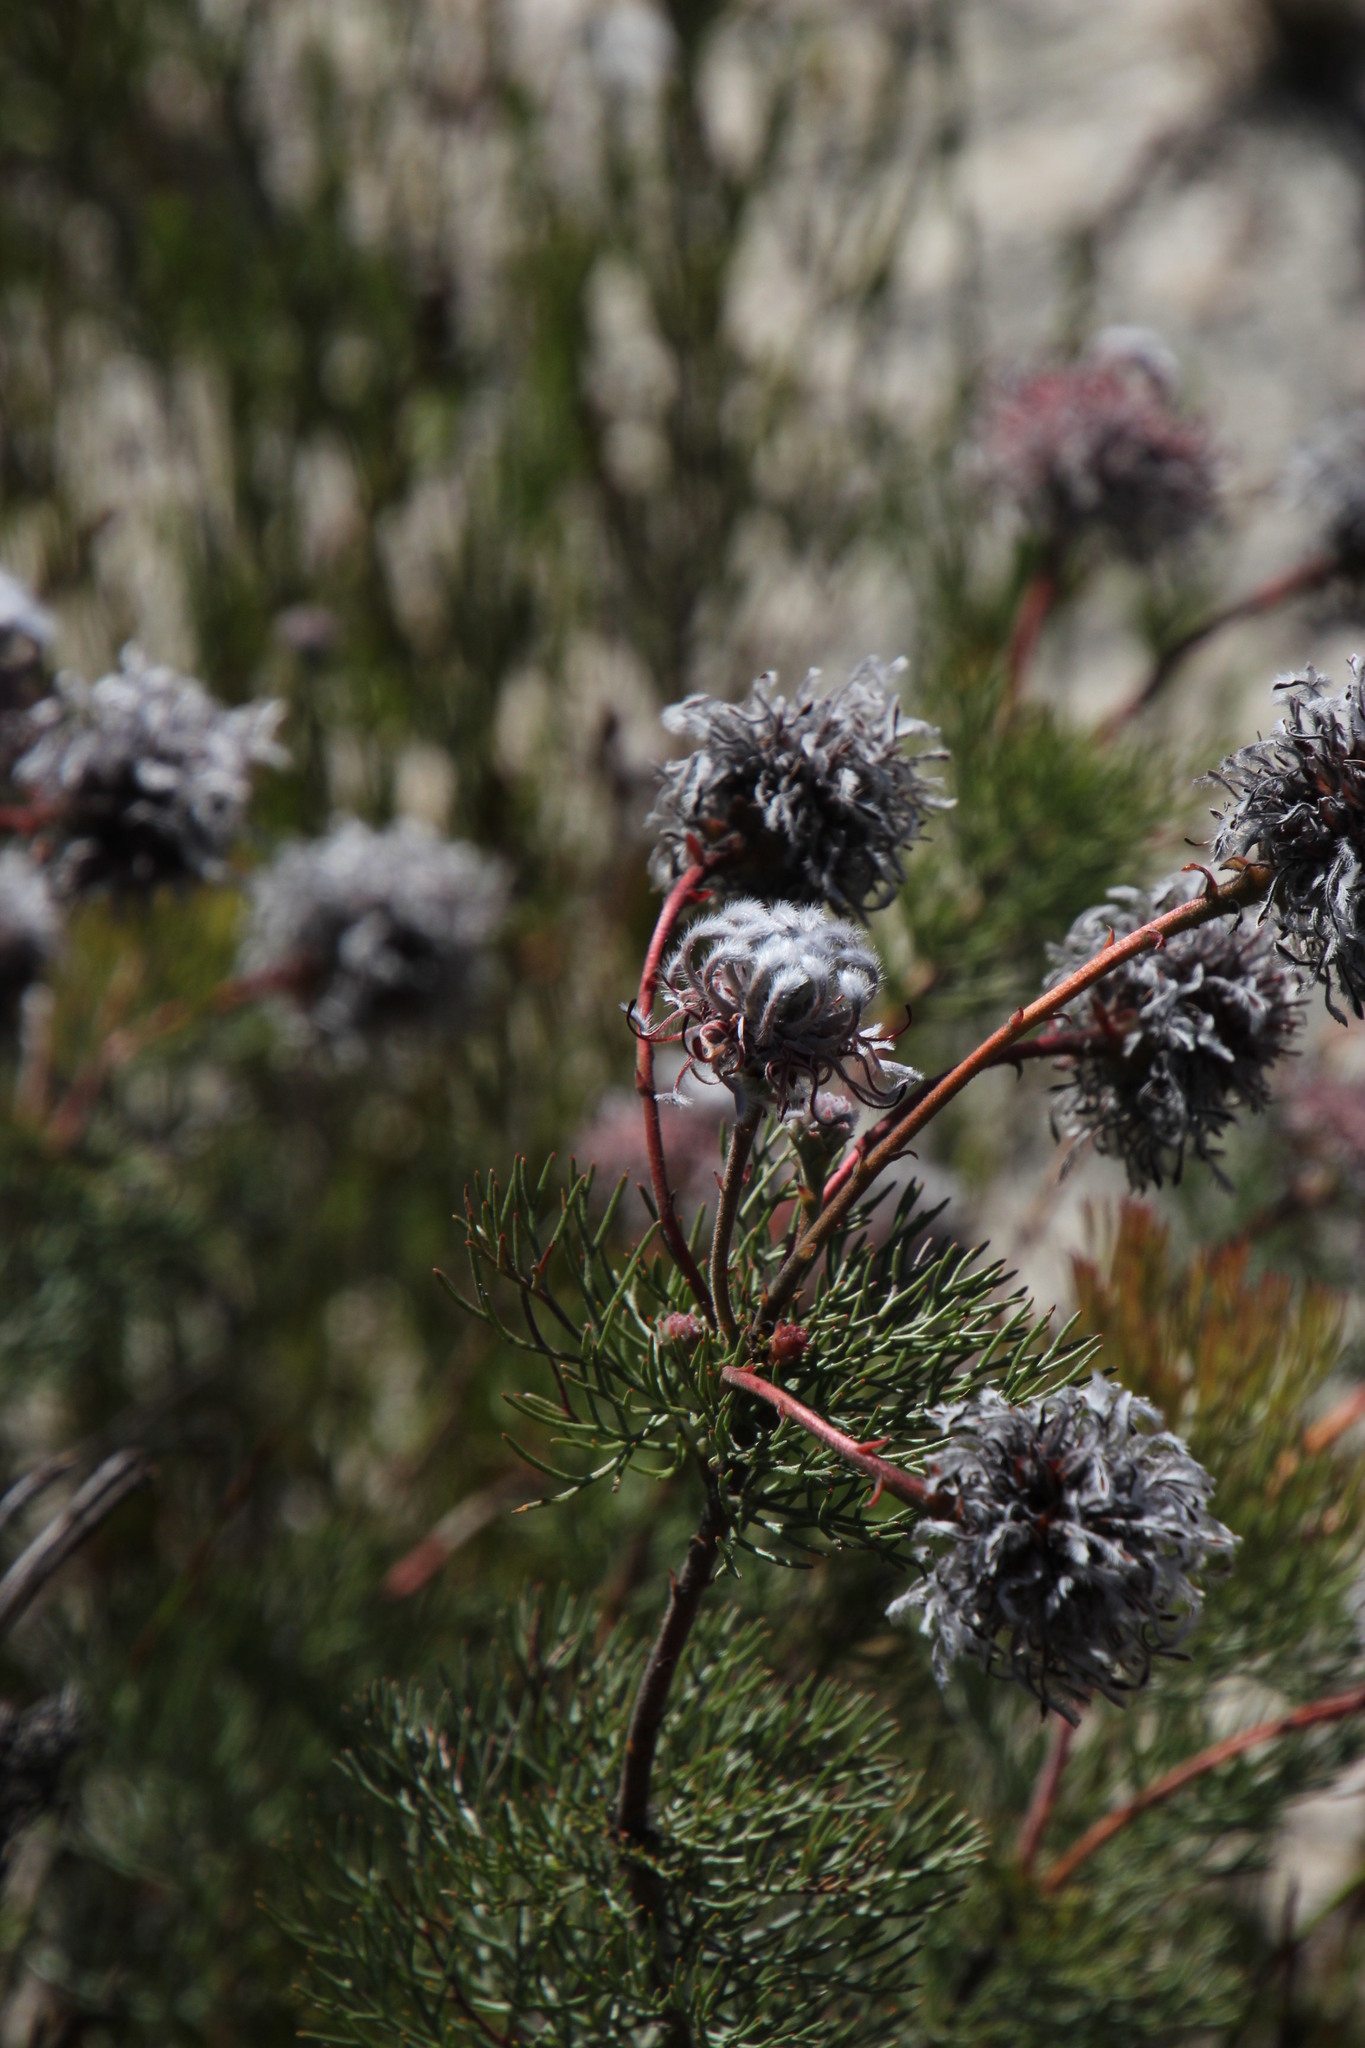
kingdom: Plantae
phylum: Tracheophyta
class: Magnoliopsida
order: Proteales
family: Proteaceae
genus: Serruria
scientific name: Serruria pedunculata
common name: Fan-leaf spiderhead
